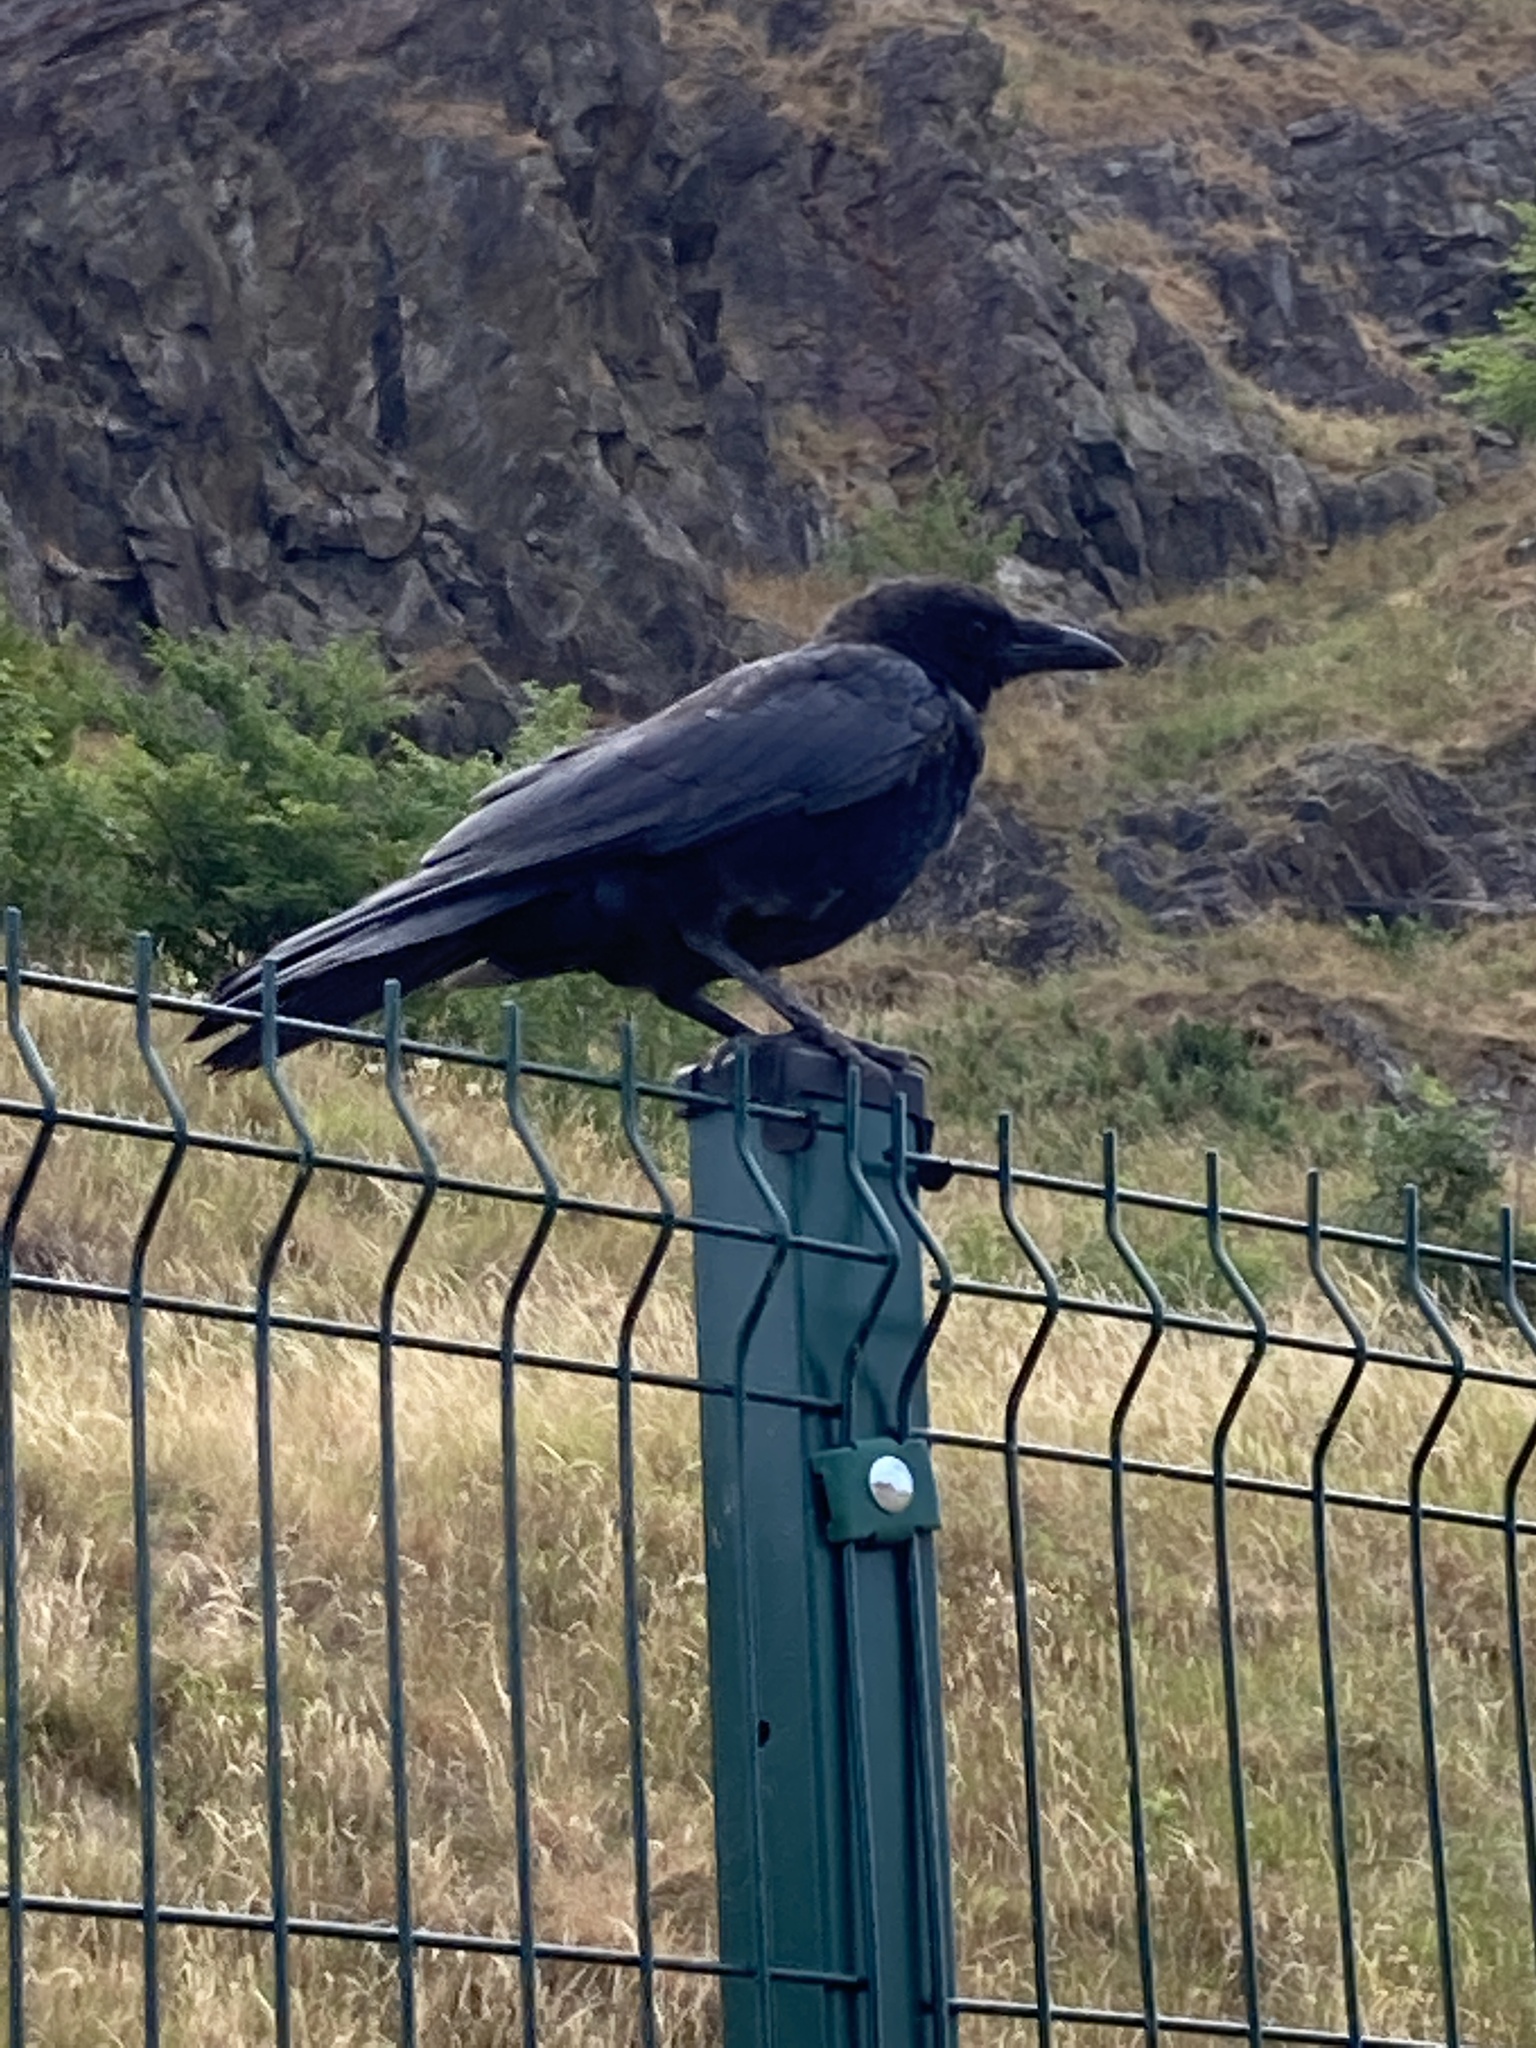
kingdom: Animalia
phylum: Chordata
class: Aves
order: Passeriformes
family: Corvidae
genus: Corvus
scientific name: Corvus corone
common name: Carrion crow
